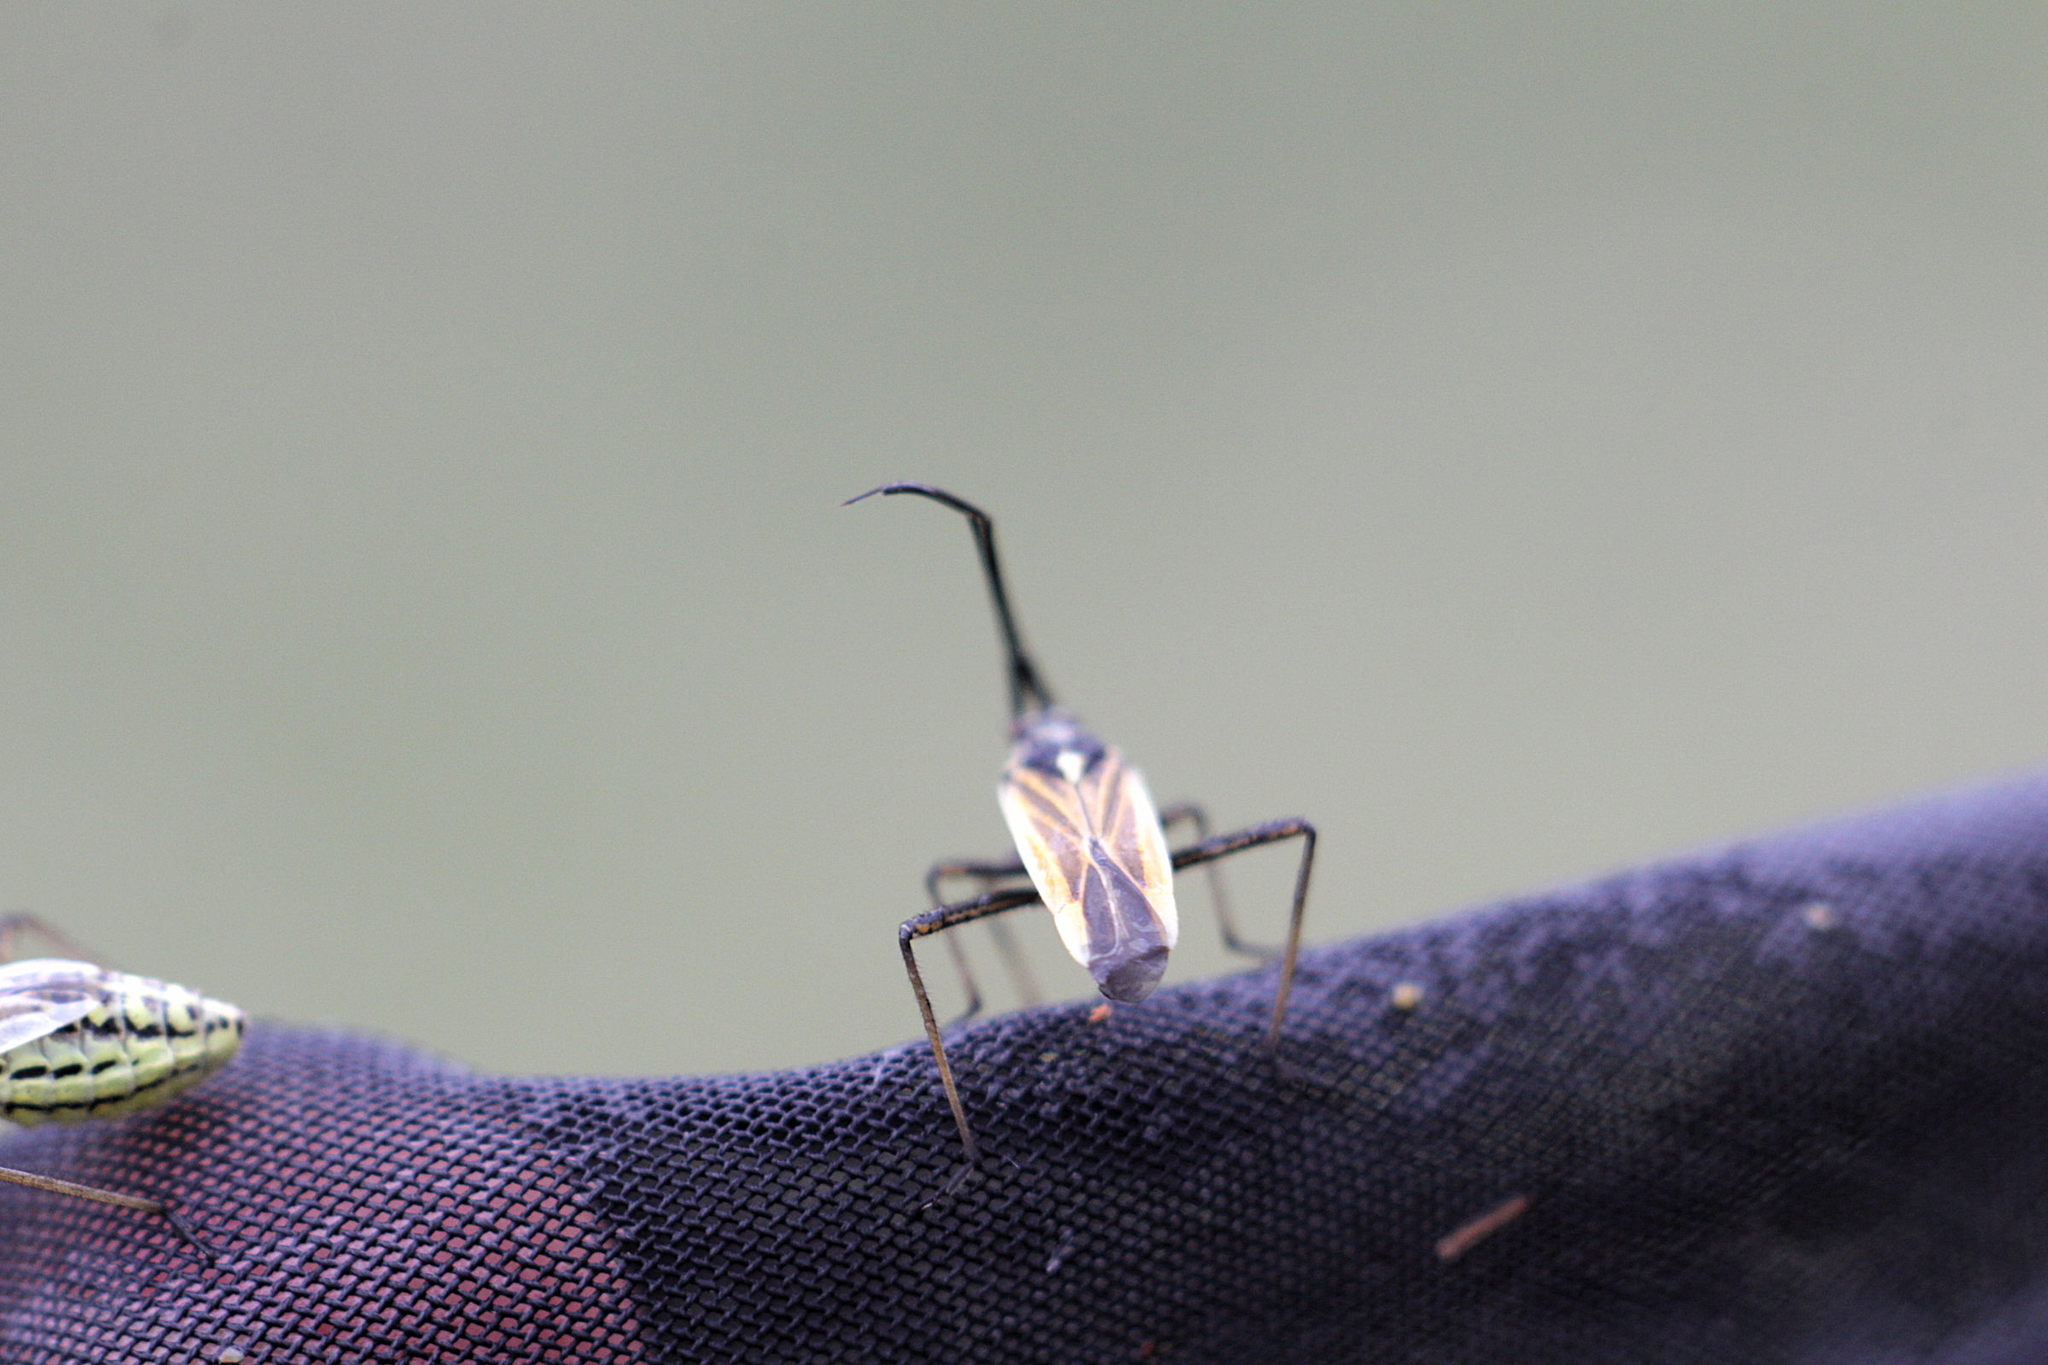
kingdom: Animalia
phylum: Arthropoda
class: Insecta
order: Hemiptera
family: Miridae
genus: Leptopterna
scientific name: Leptopterna dolabrata
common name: Meadow plant bug
